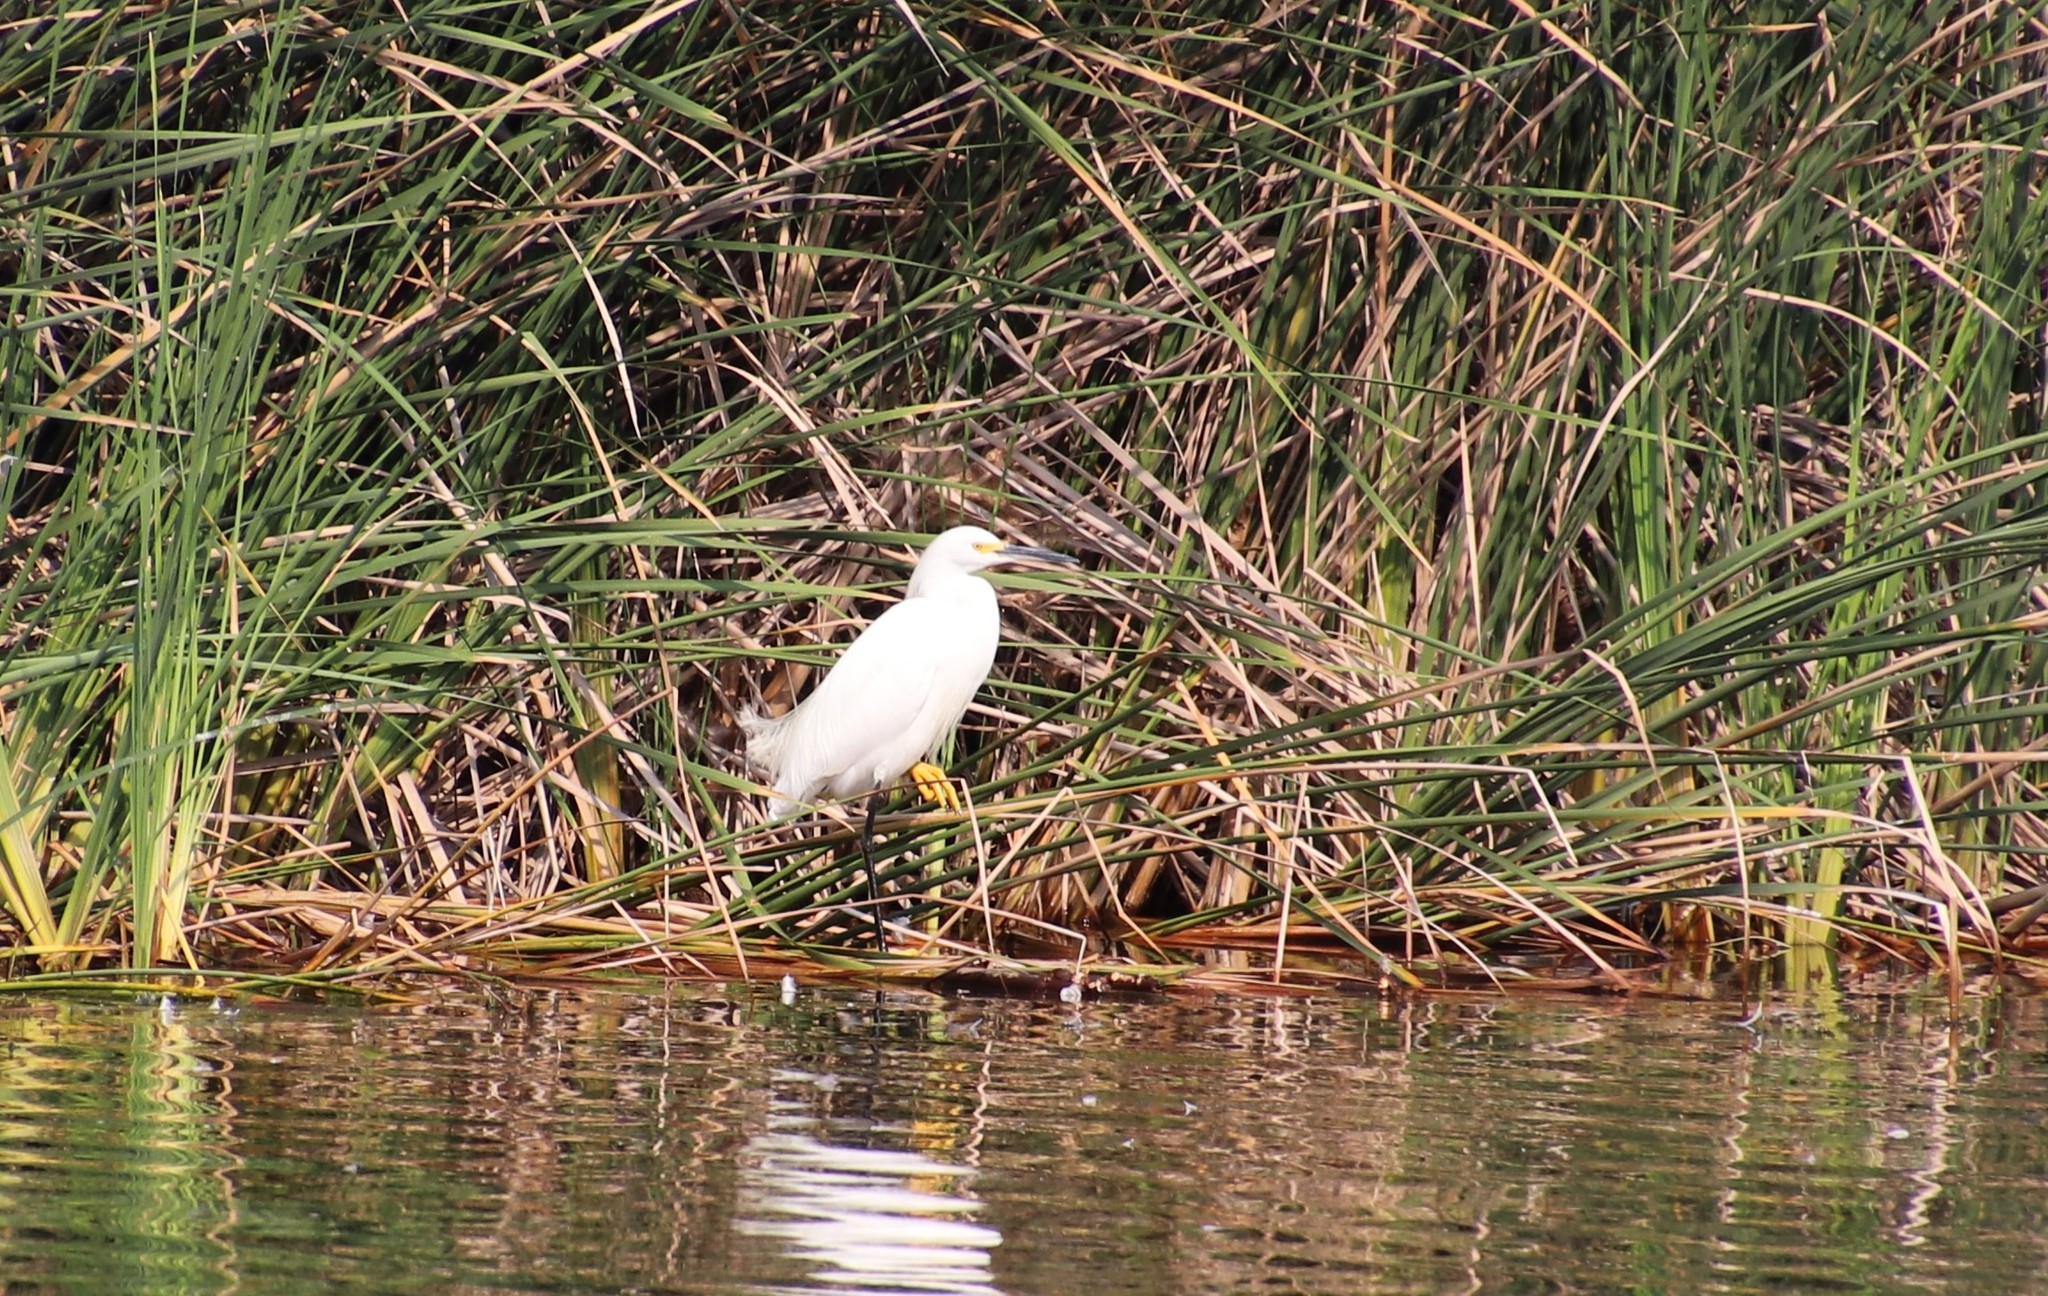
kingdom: Animalia
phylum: Chordata
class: Aves
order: Pelecaniformes
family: Ardeidae
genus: Egretta
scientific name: Egretta thula
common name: Snowy egret
